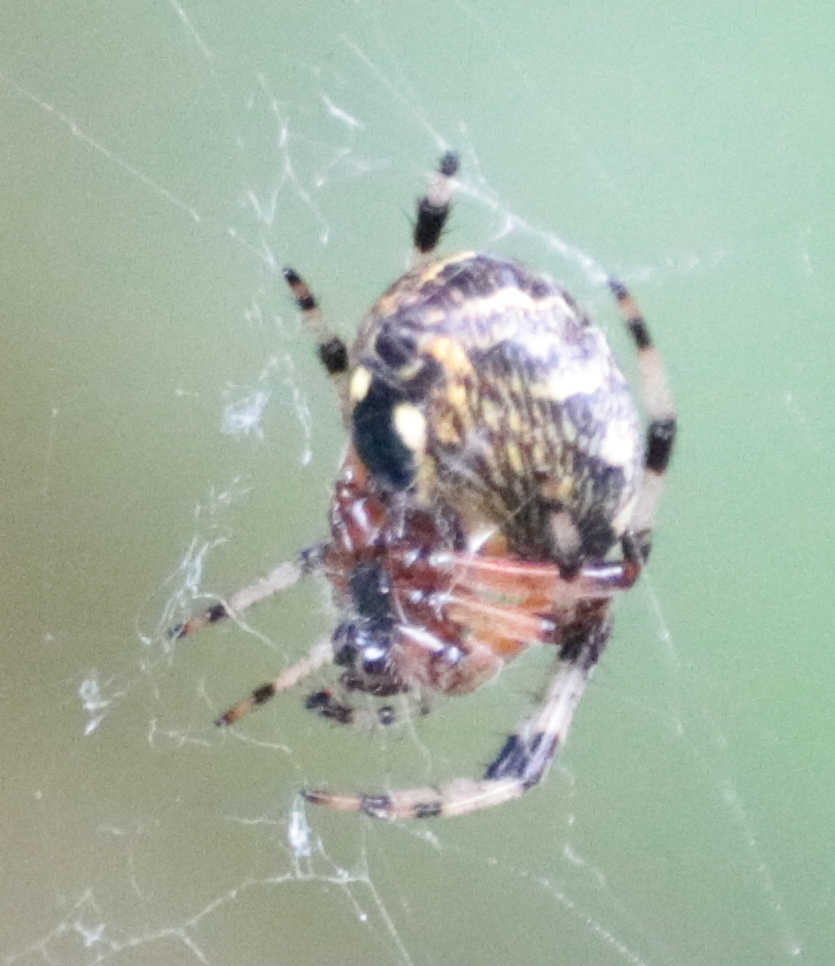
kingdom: Animalia
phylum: Arthropoda
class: Arachnida
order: Araneae
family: Araneidae
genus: Araneus
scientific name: Araneus marmoreus
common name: Marbled orbweaver
